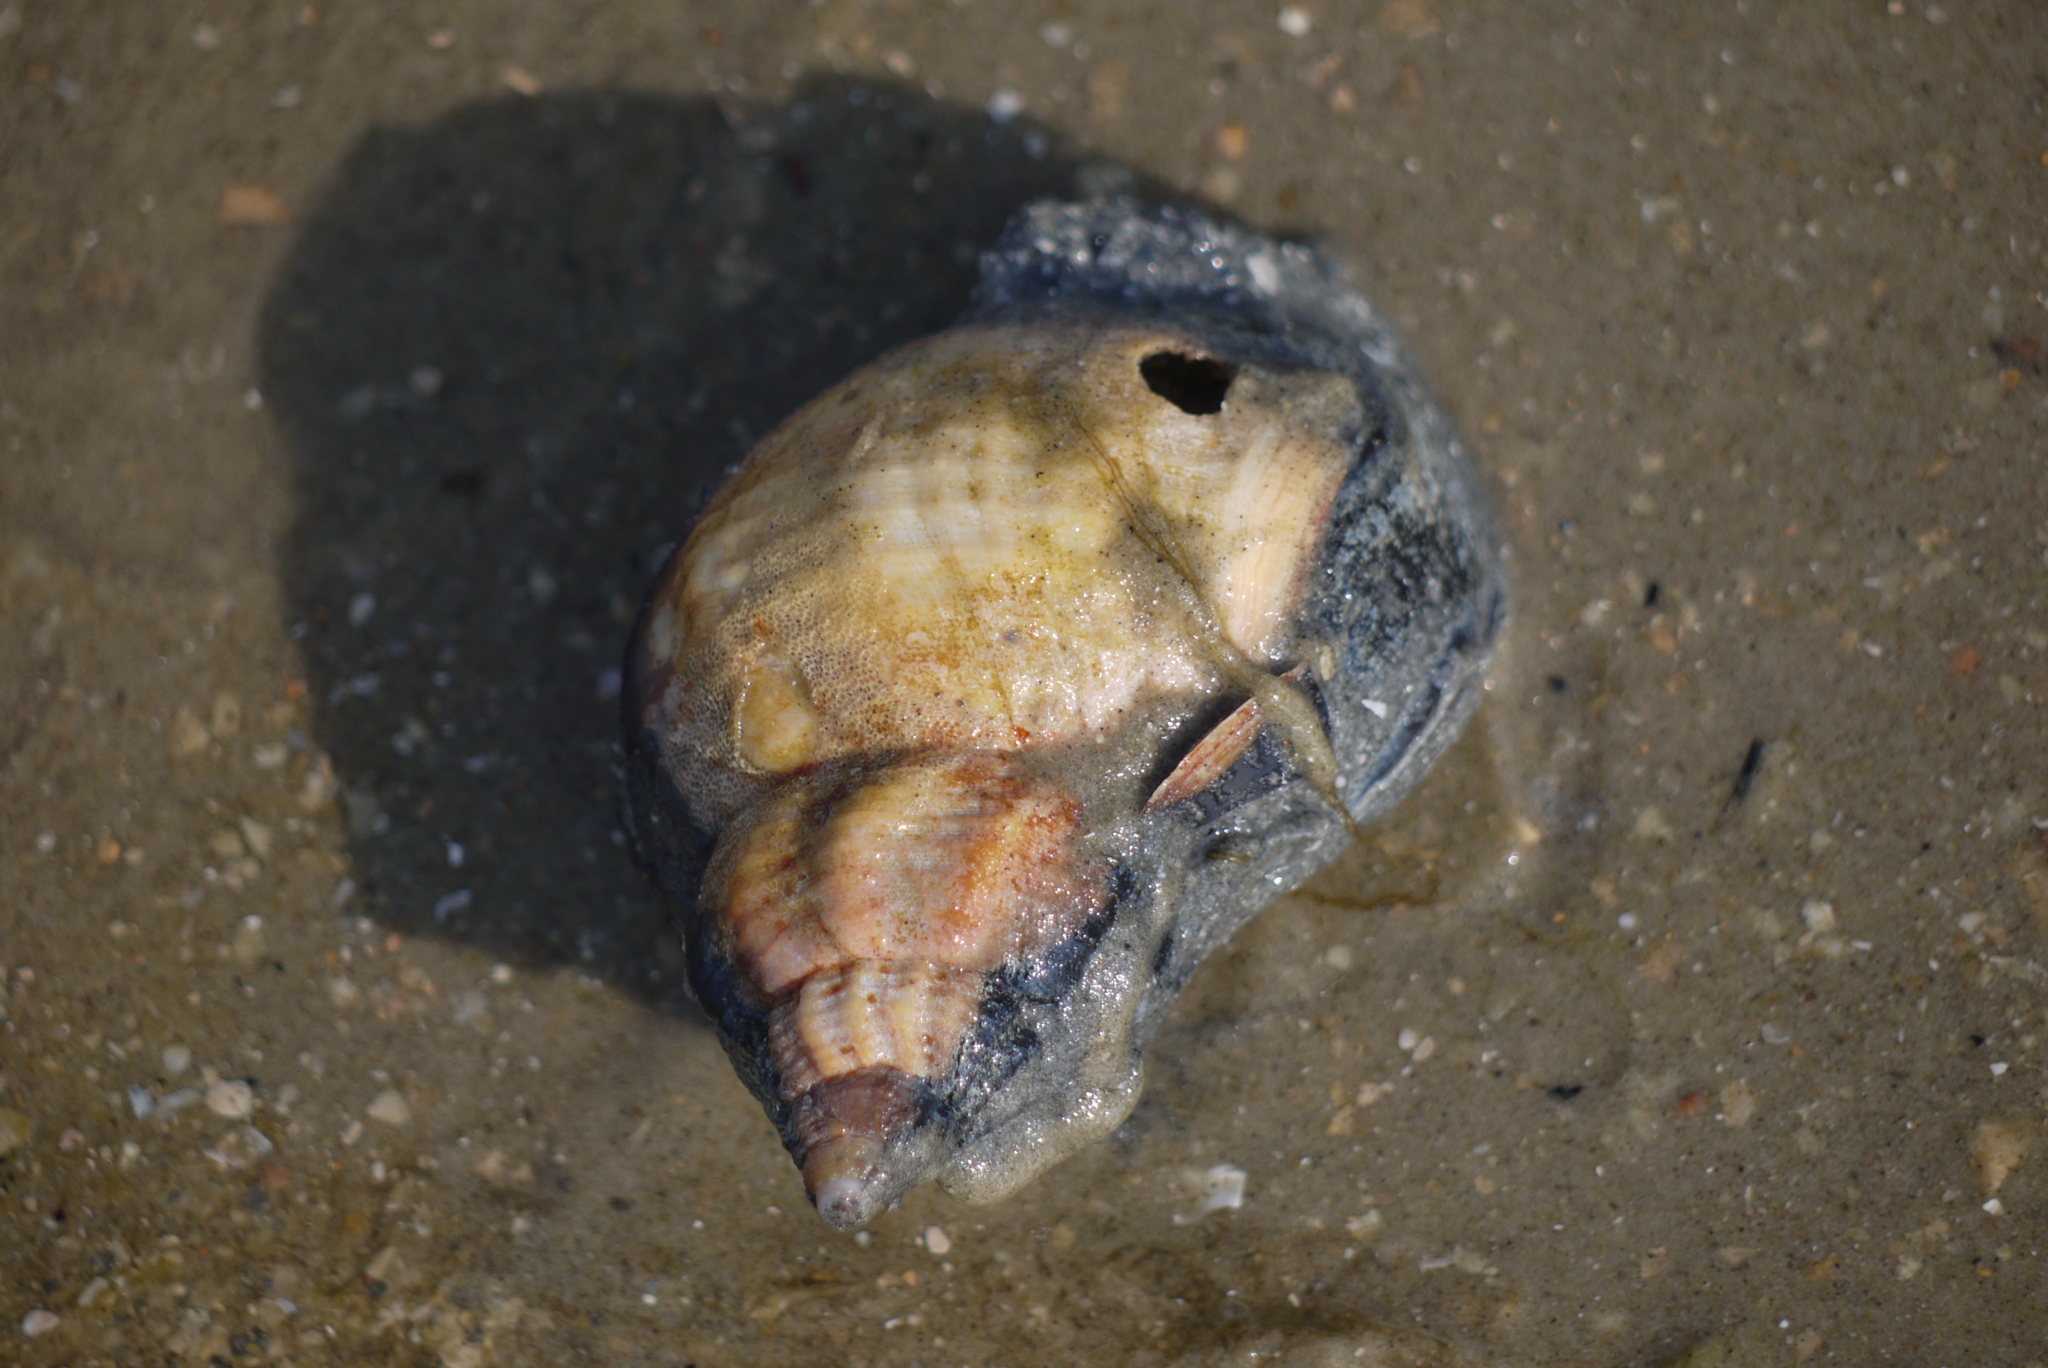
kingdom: Animalia
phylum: Mollusca
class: Gastropoda
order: Neogastropoda
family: Buccinidae
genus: Buccinum
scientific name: Buccinum undatum
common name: Common whelk
